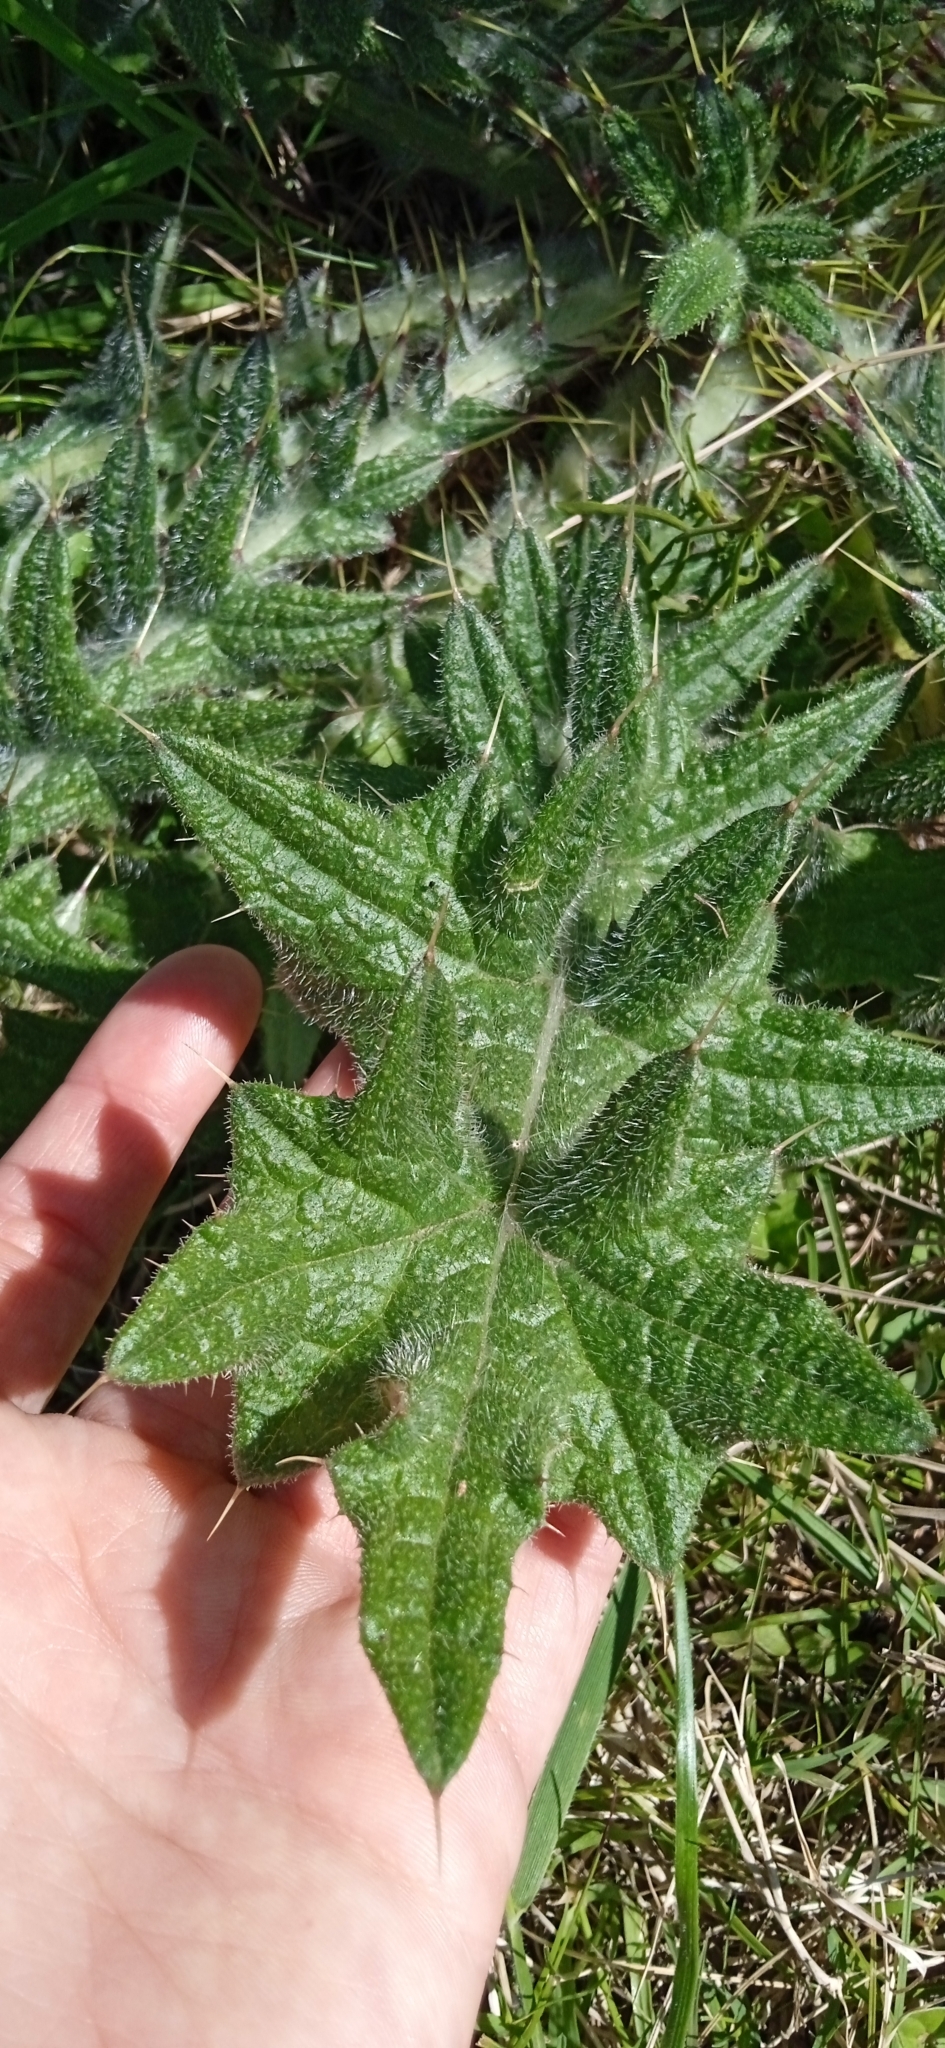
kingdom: Plantae
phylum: Tracheophyta
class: Magnoliopsida
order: Asterales
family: Asteraceae
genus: Cirsium
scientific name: Cirsium vulgare
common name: Bull thistle
